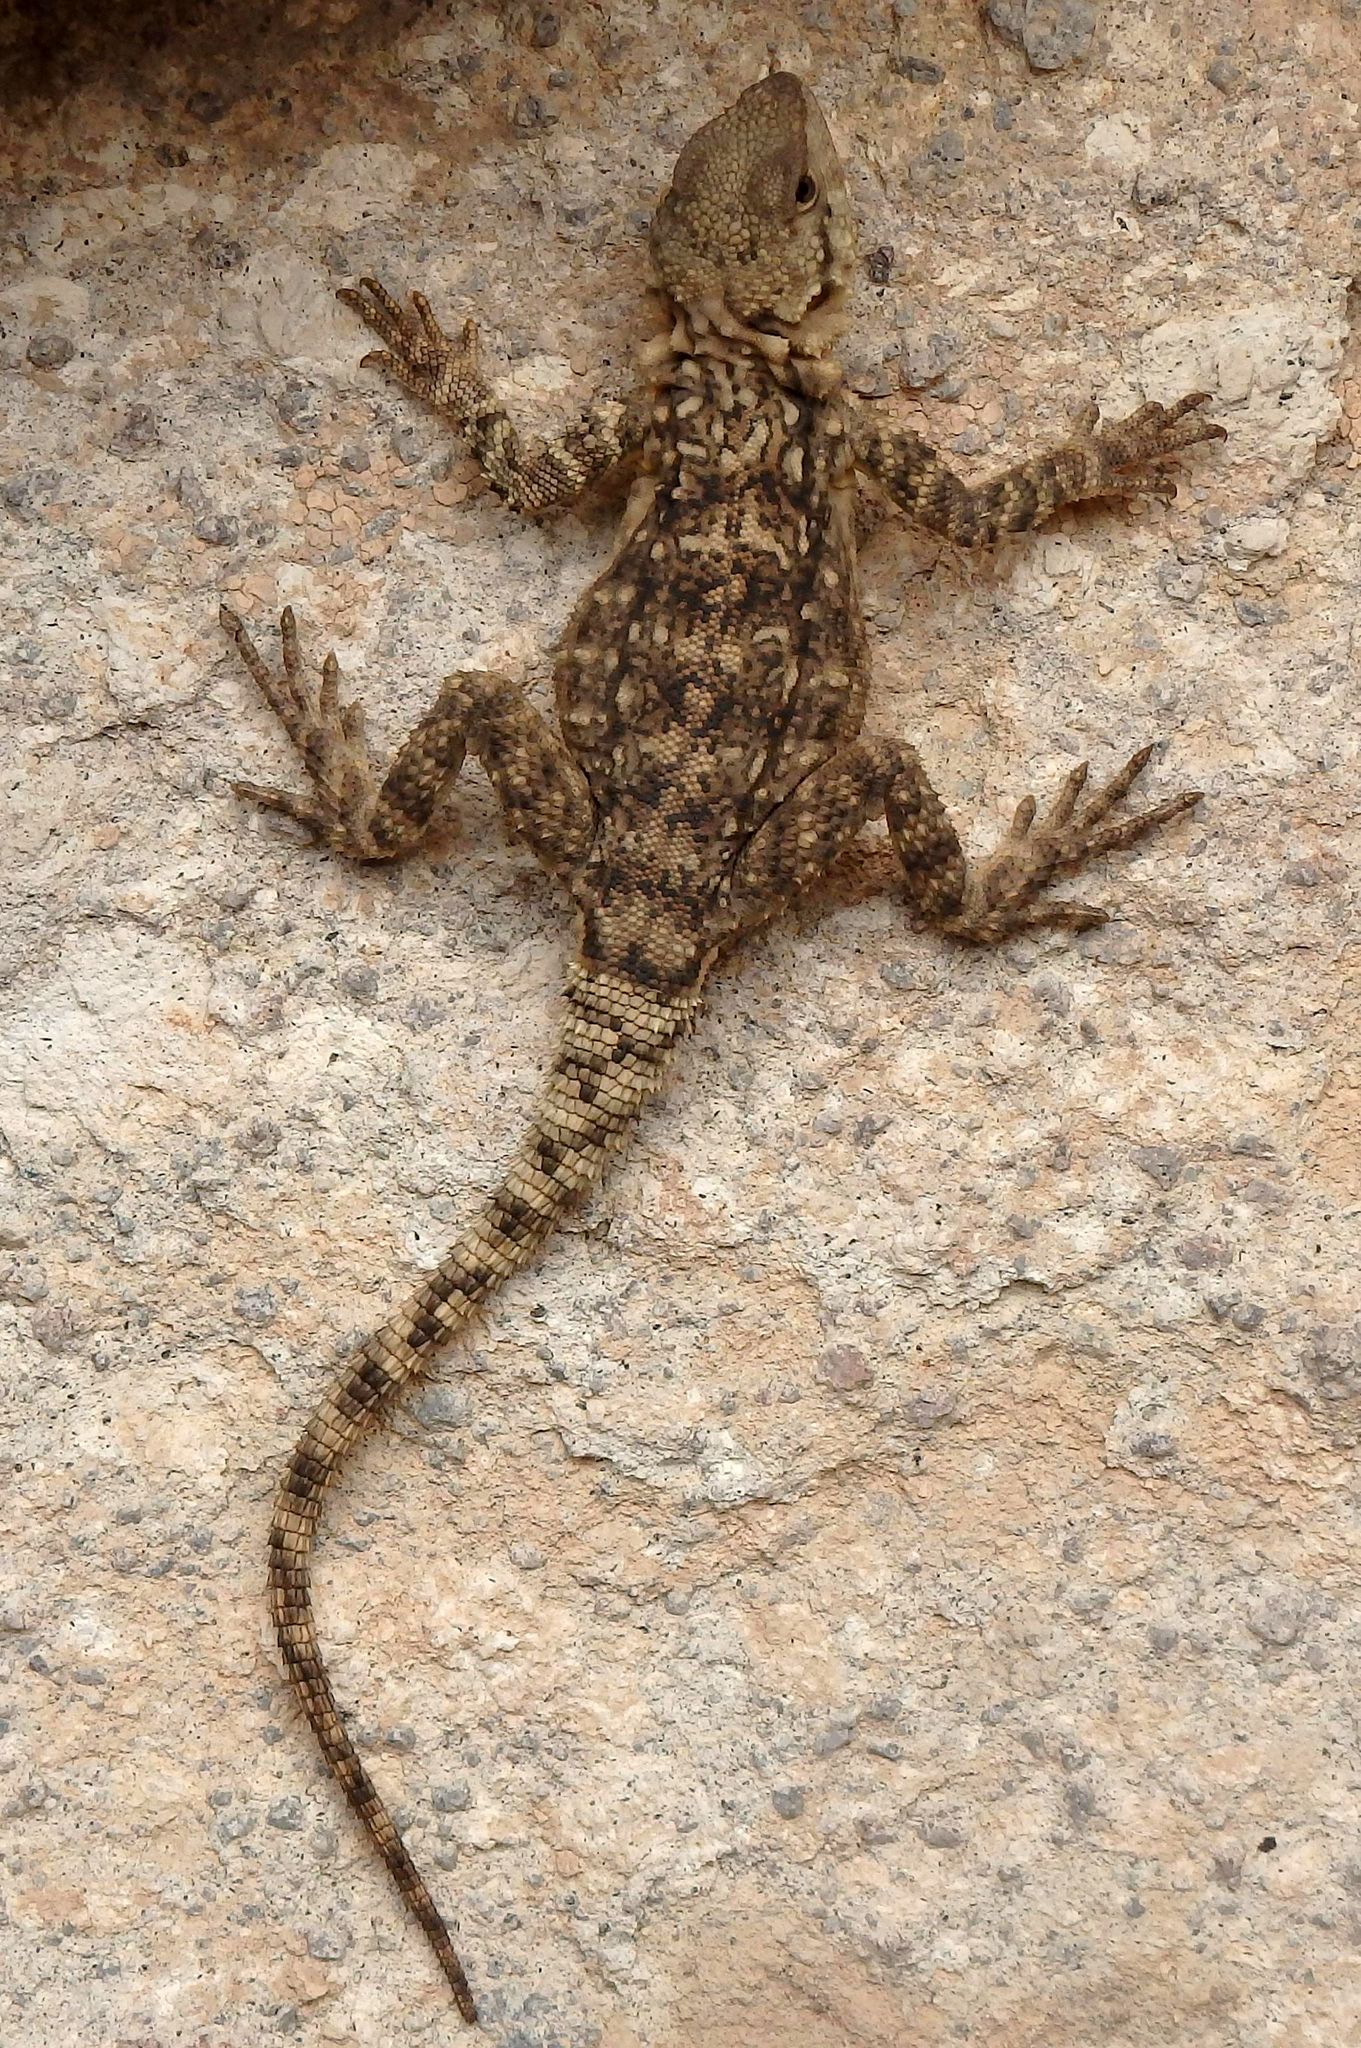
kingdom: Animalia
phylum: Chordata
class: Squamata
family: Agamidae
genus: Paralaudakia
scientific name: Paralaudakia caucasia
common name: Caucasian agama
